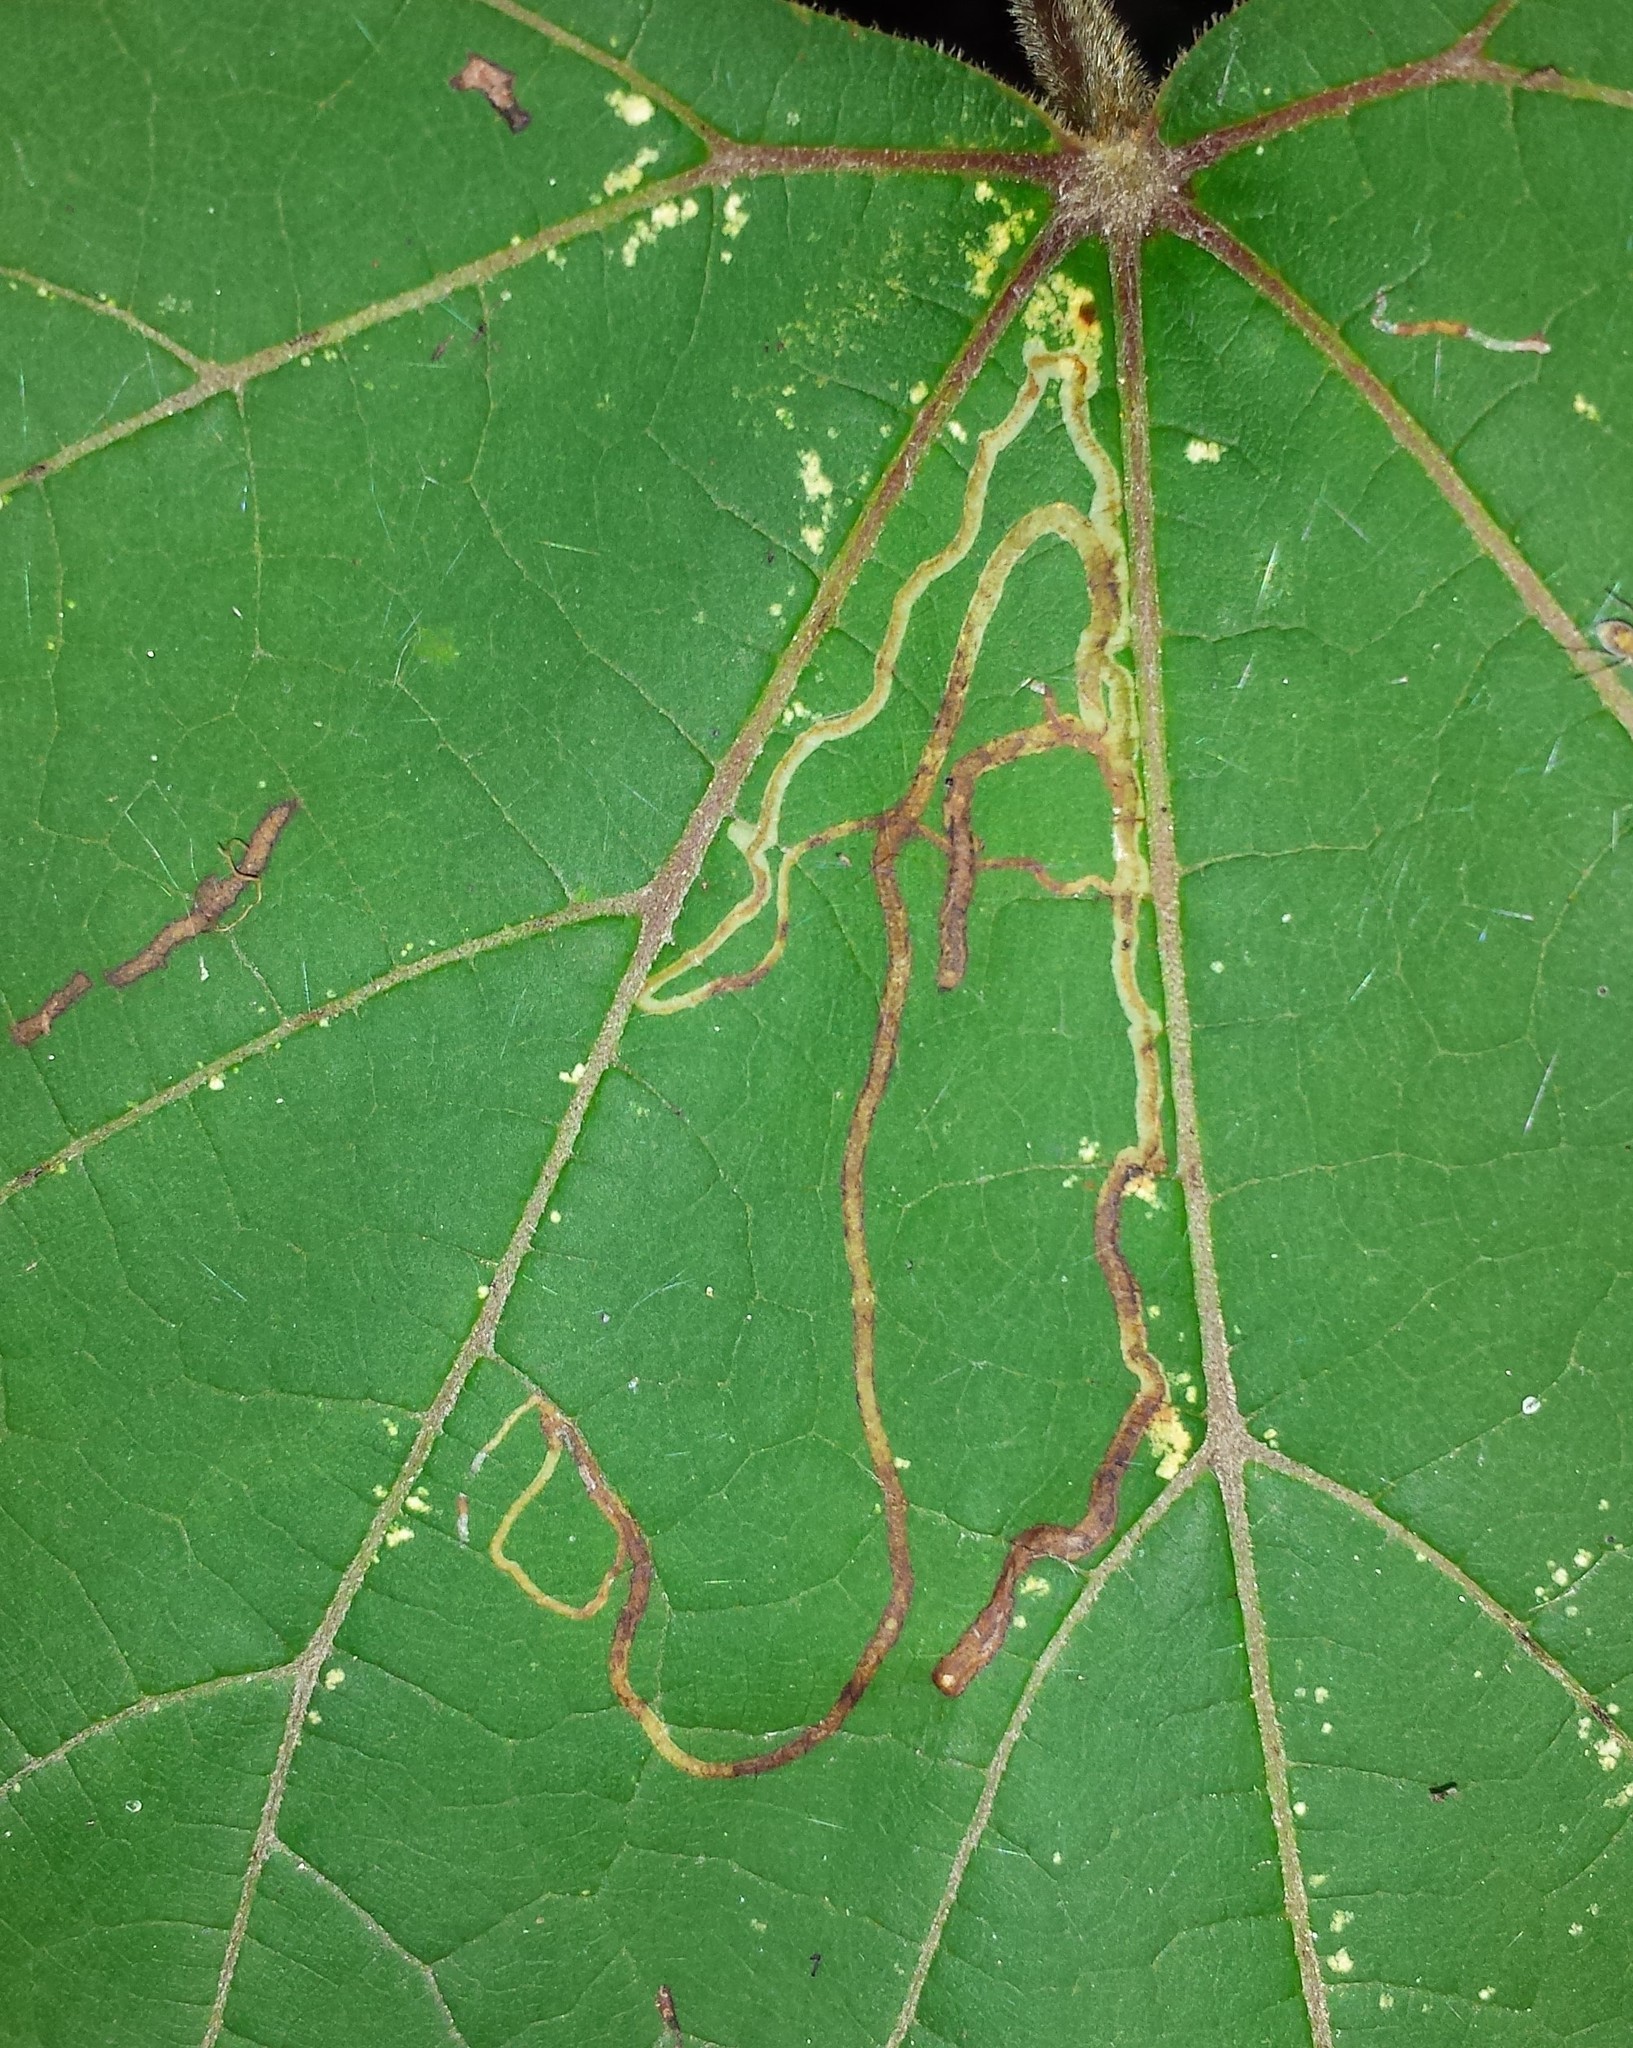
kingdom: Animalia
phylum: Arthropoda
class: Insecta
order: Lepidoptera
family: Gracillariidae
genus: Phyllocnistis
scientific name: Phyllocnistis vitifoliella
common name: Grape leaf-miner moth
